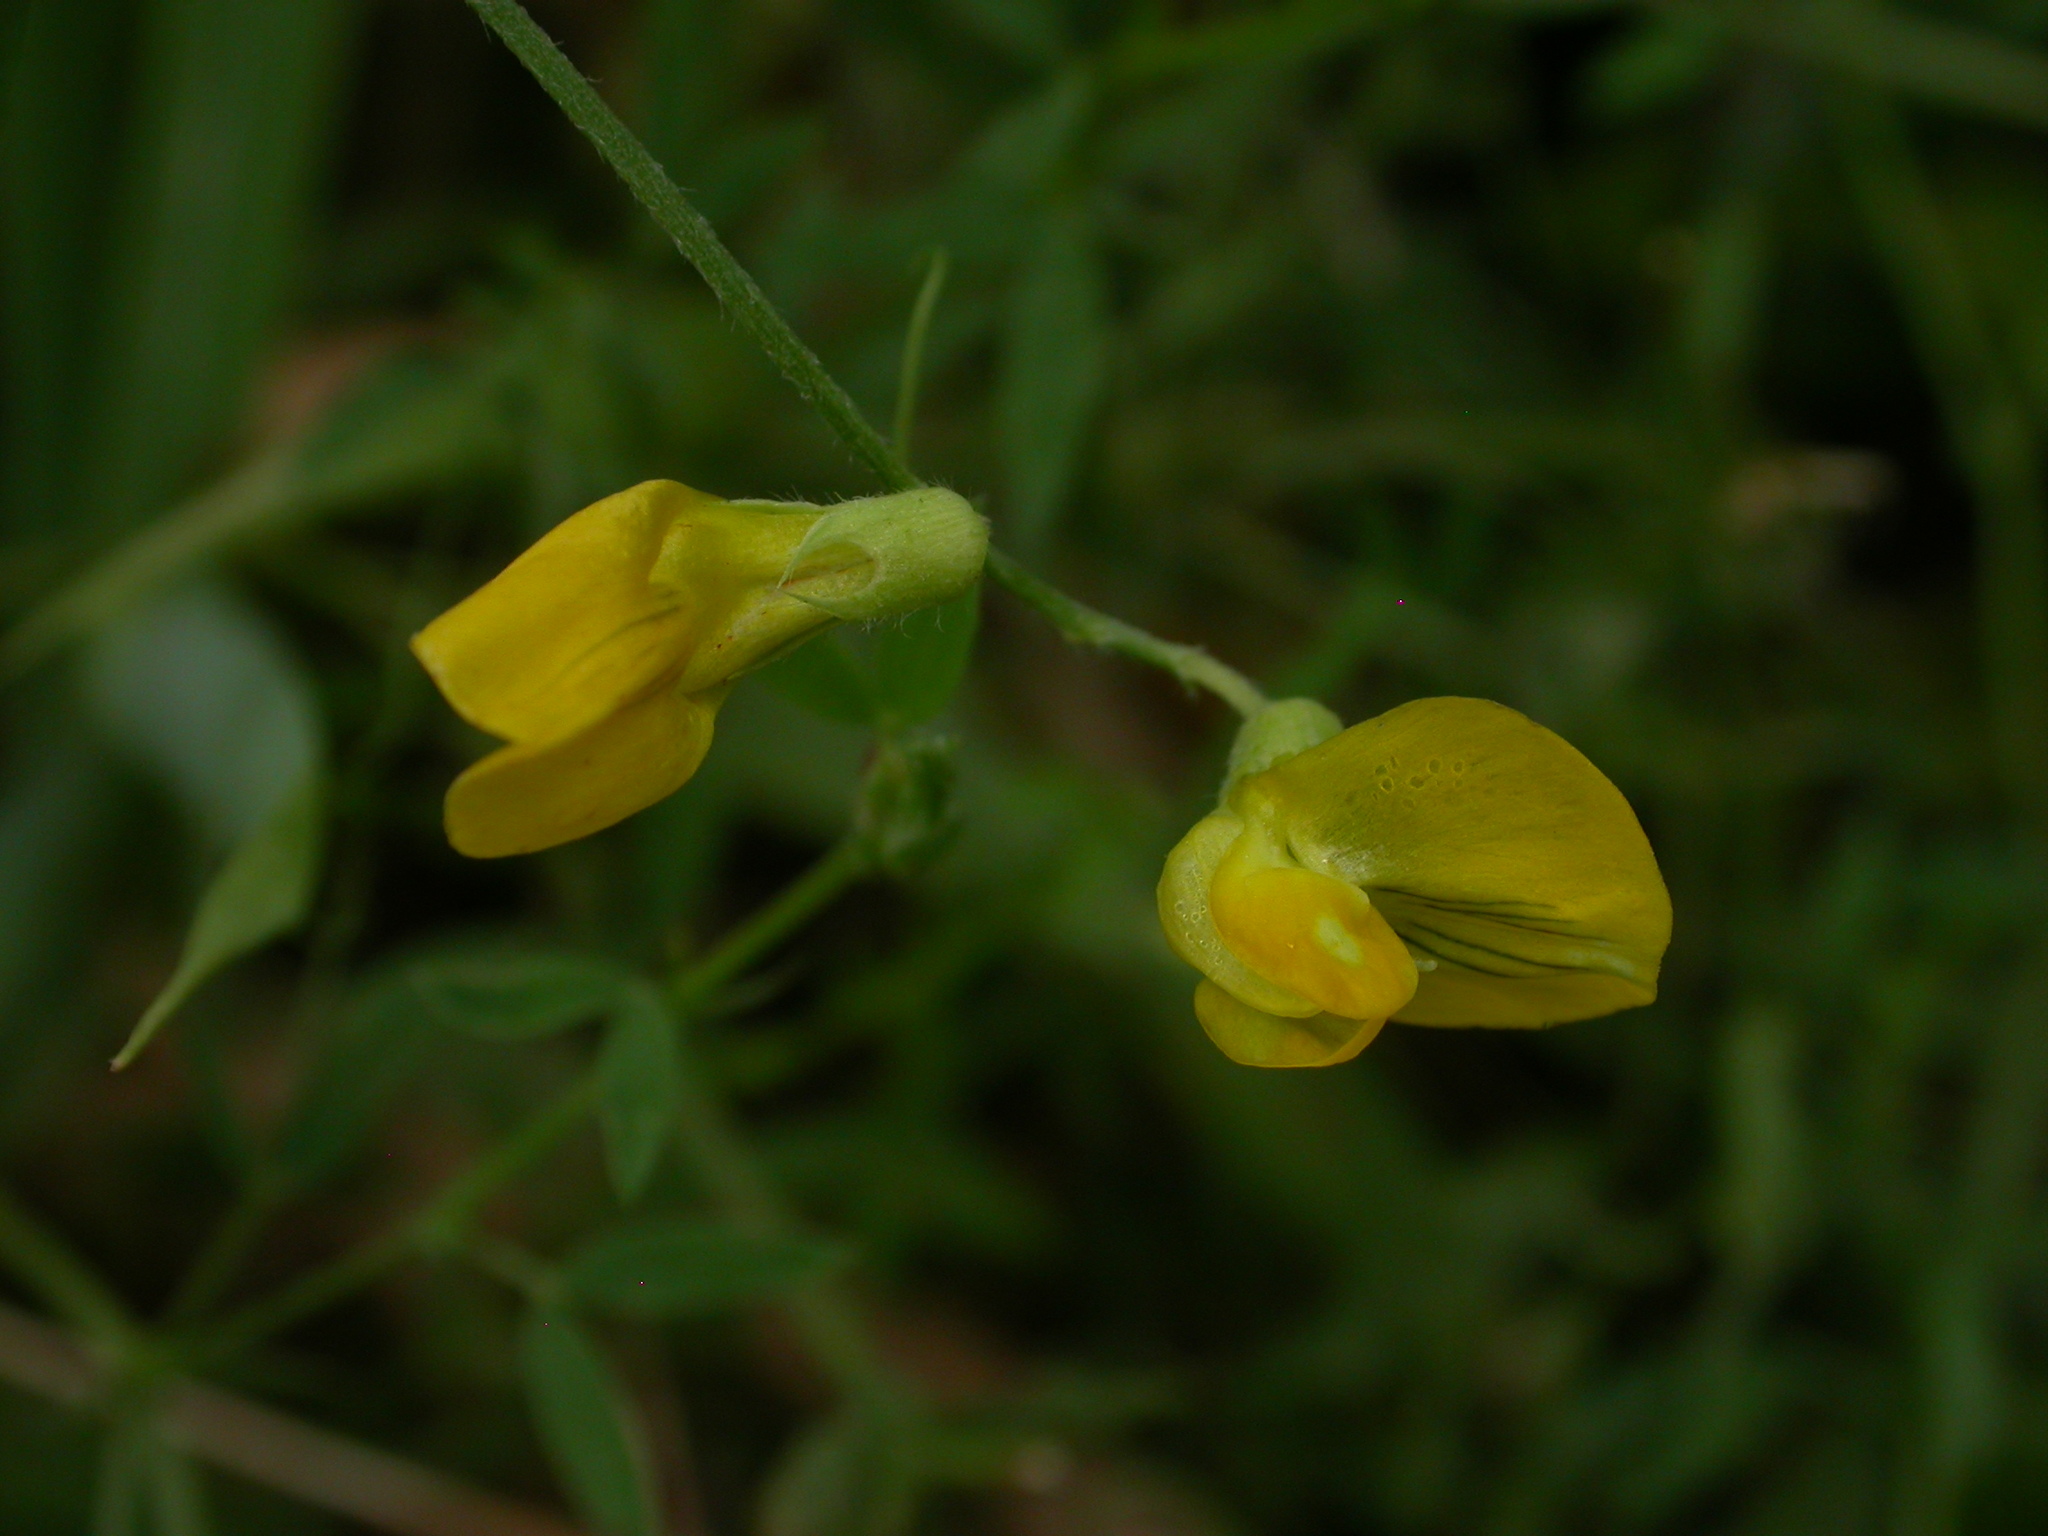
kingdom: Plantae
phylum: Tracheophyta
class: Magnoliopsida
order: Fabales
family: Fabaceae
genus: Lathyrus
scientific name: Lathyrus pratensis
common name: Meadow vetchling
